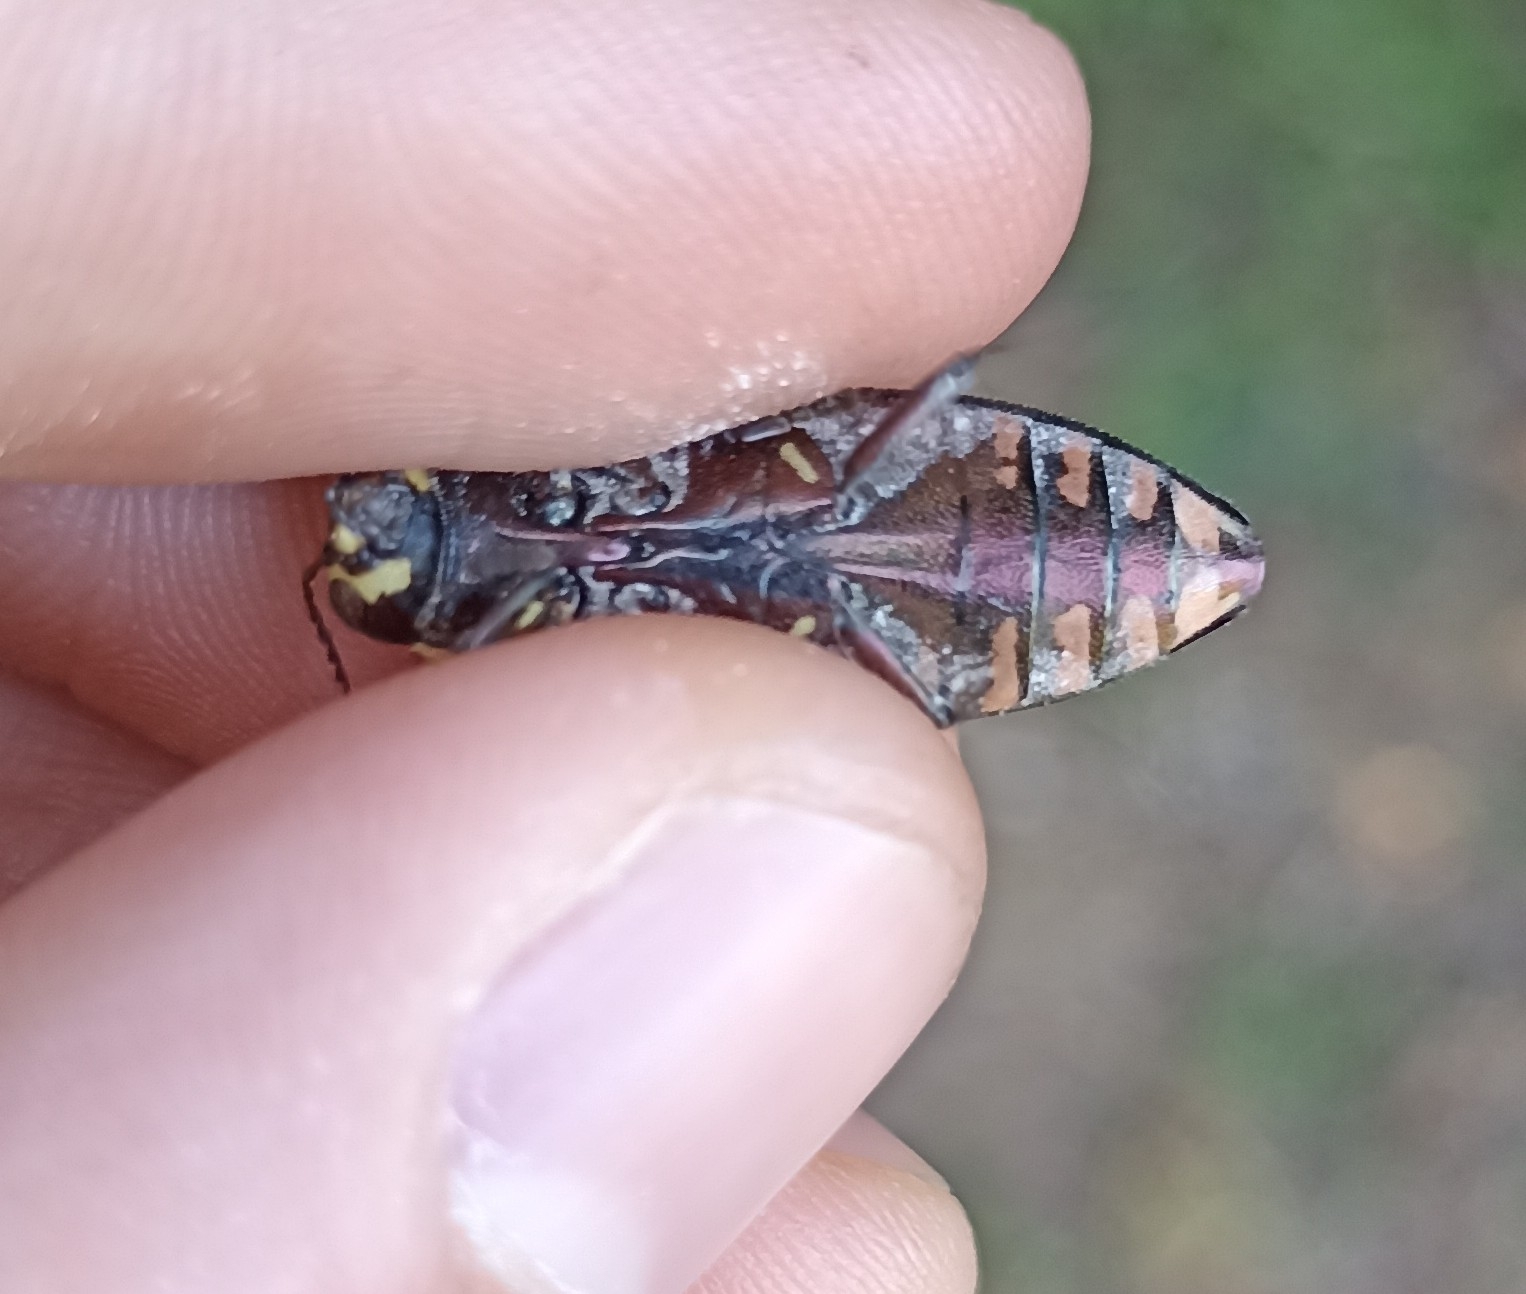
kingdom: Animalia
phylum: Arthropoda
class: Insecta
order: Coleoptera
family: Buprestidae
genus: Buprestis
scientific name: Buprestis haemorrhoidalis
